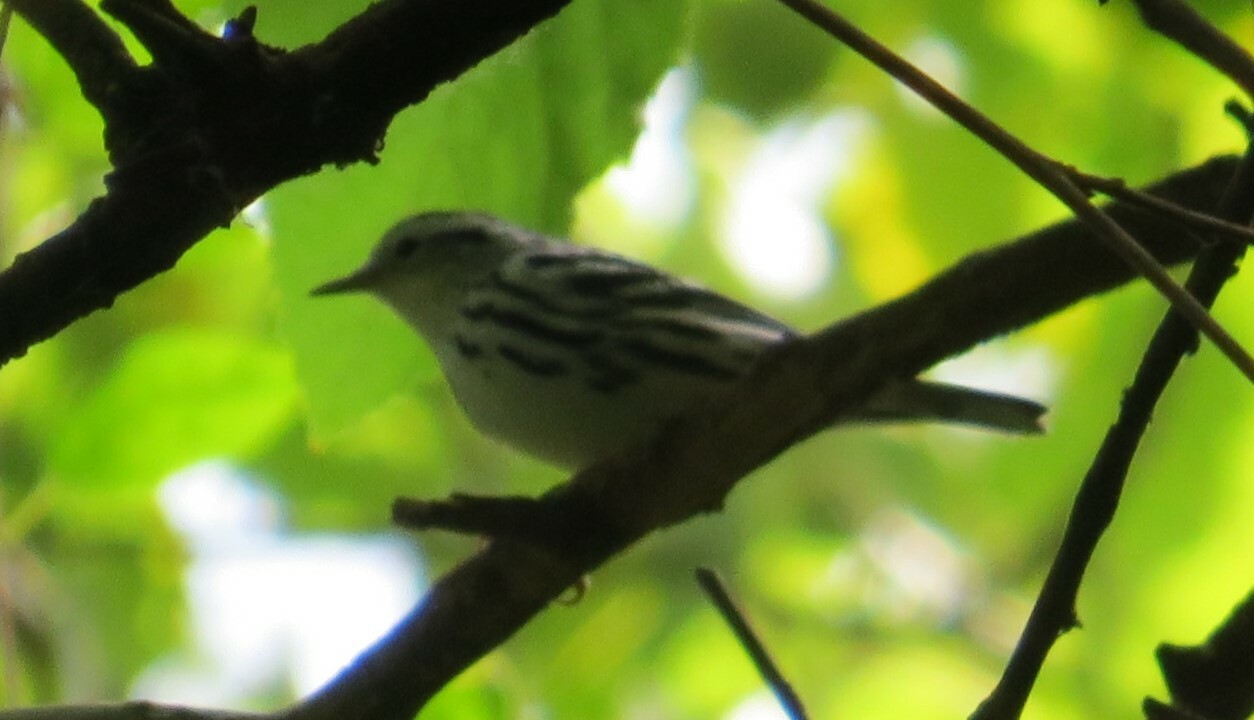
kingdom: Animalia
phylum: Chordata
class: Aves
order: Passeriformes
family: Parulidae
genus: Mniotilta
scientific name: Mniotilta varia
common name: Black-and-white warbler
